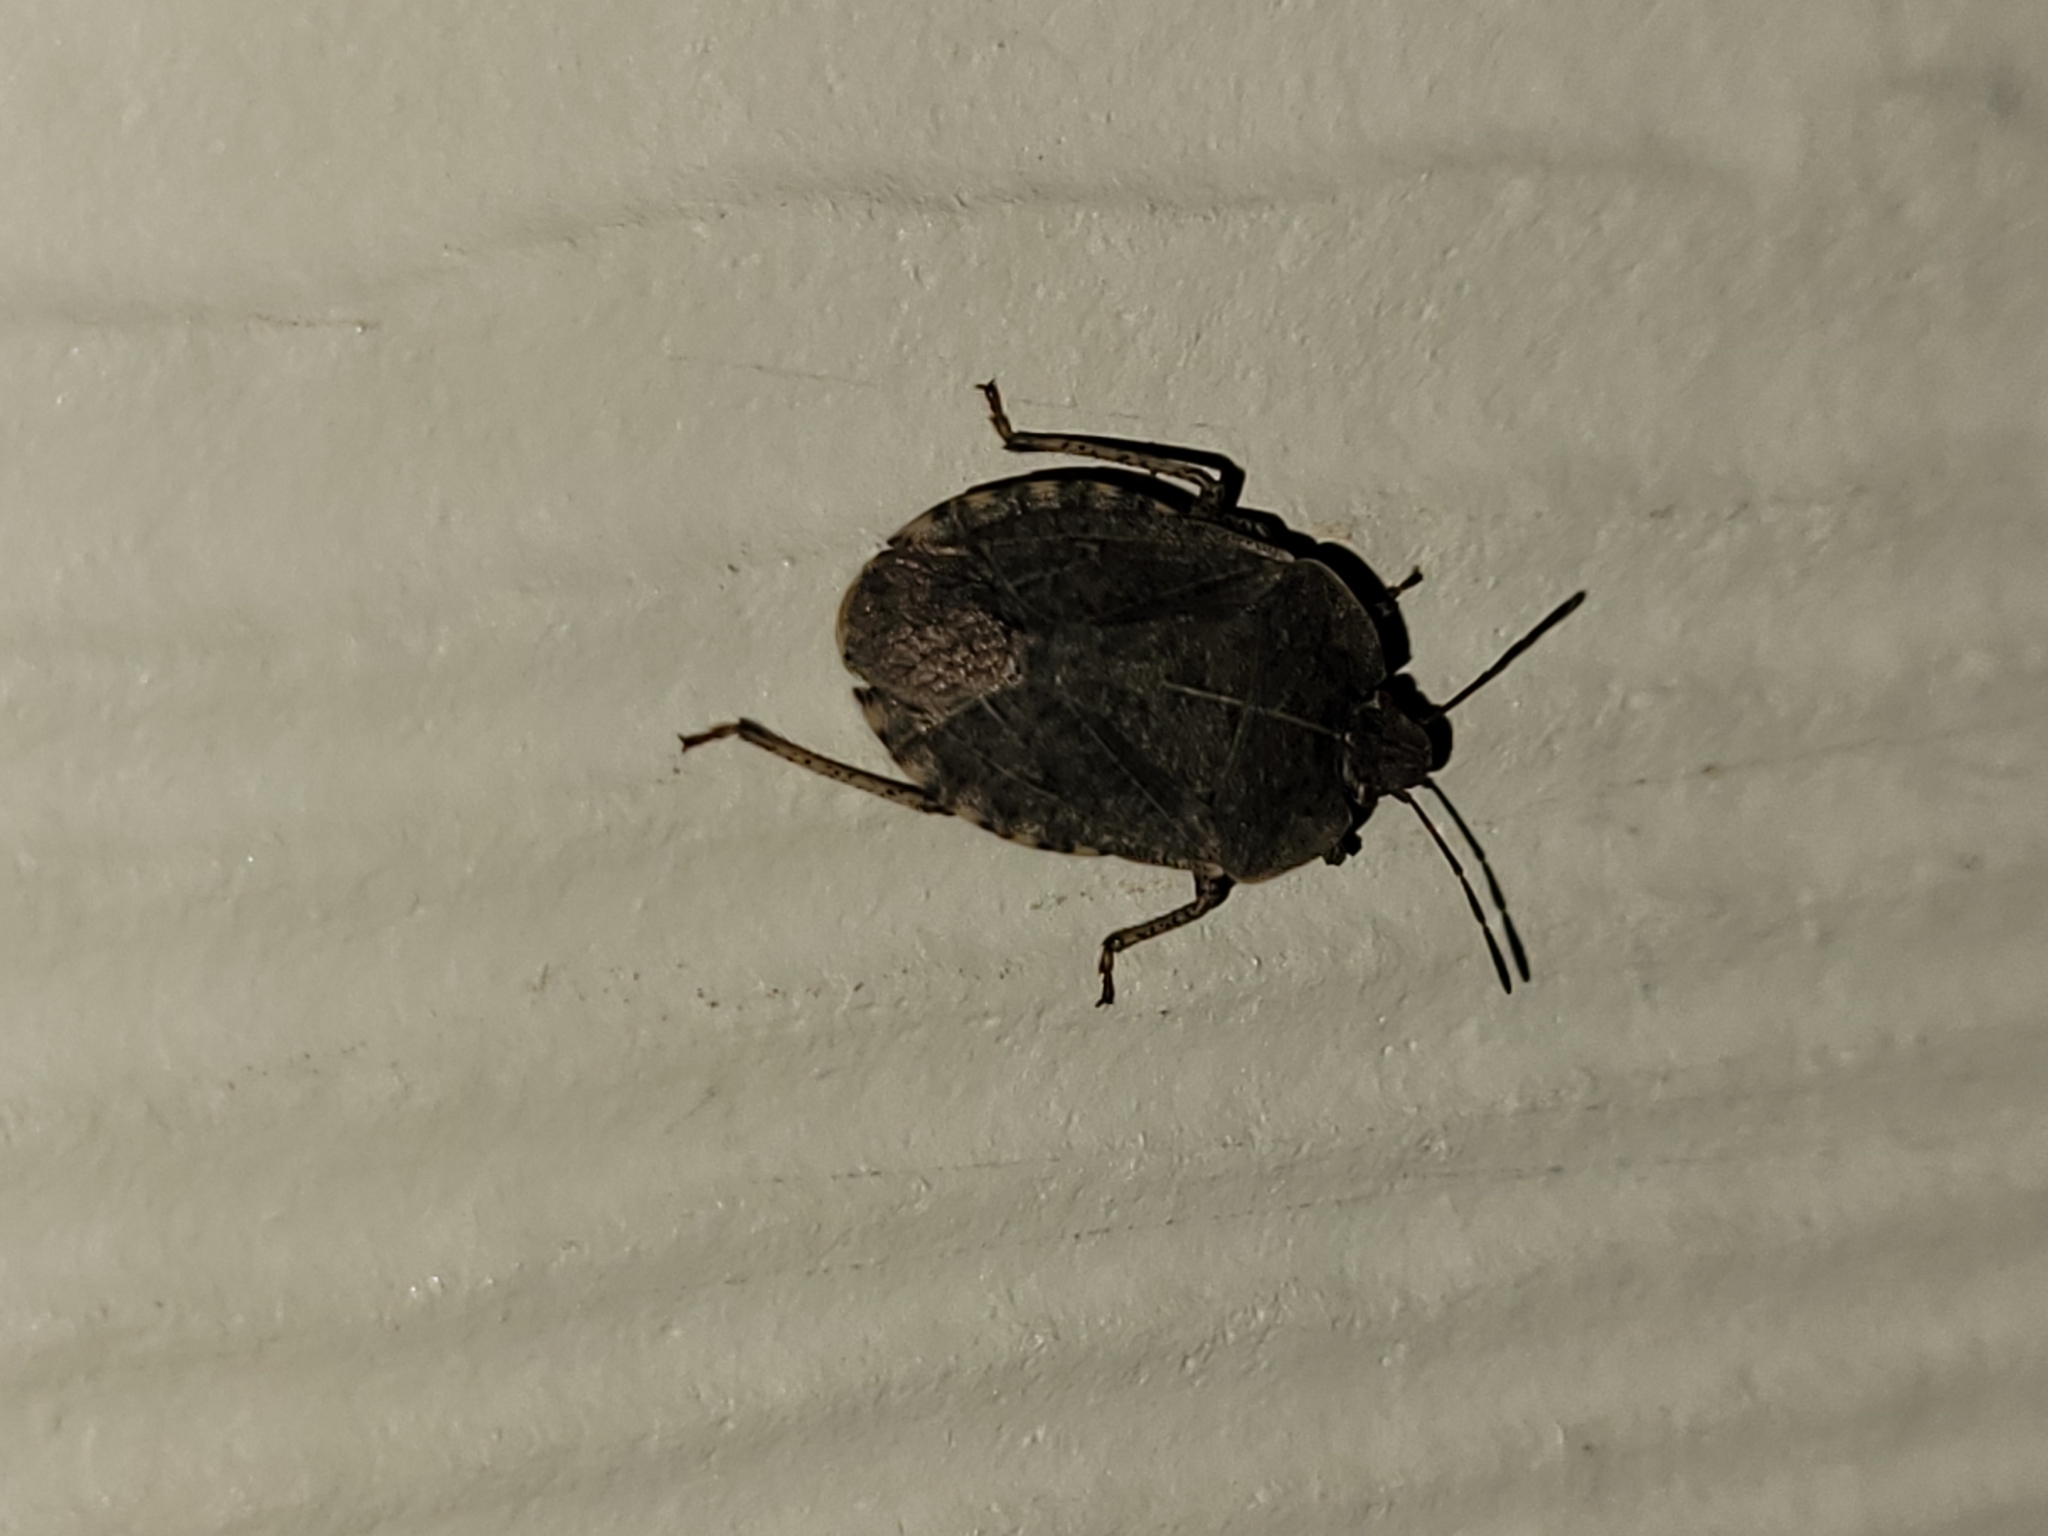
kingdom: Animalia
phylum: Arthropoda
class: Insecta
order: Hemiptera
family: Pentatomidae
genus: Menecles
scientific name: Menecles insertus
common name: Elf shoe stink bug
